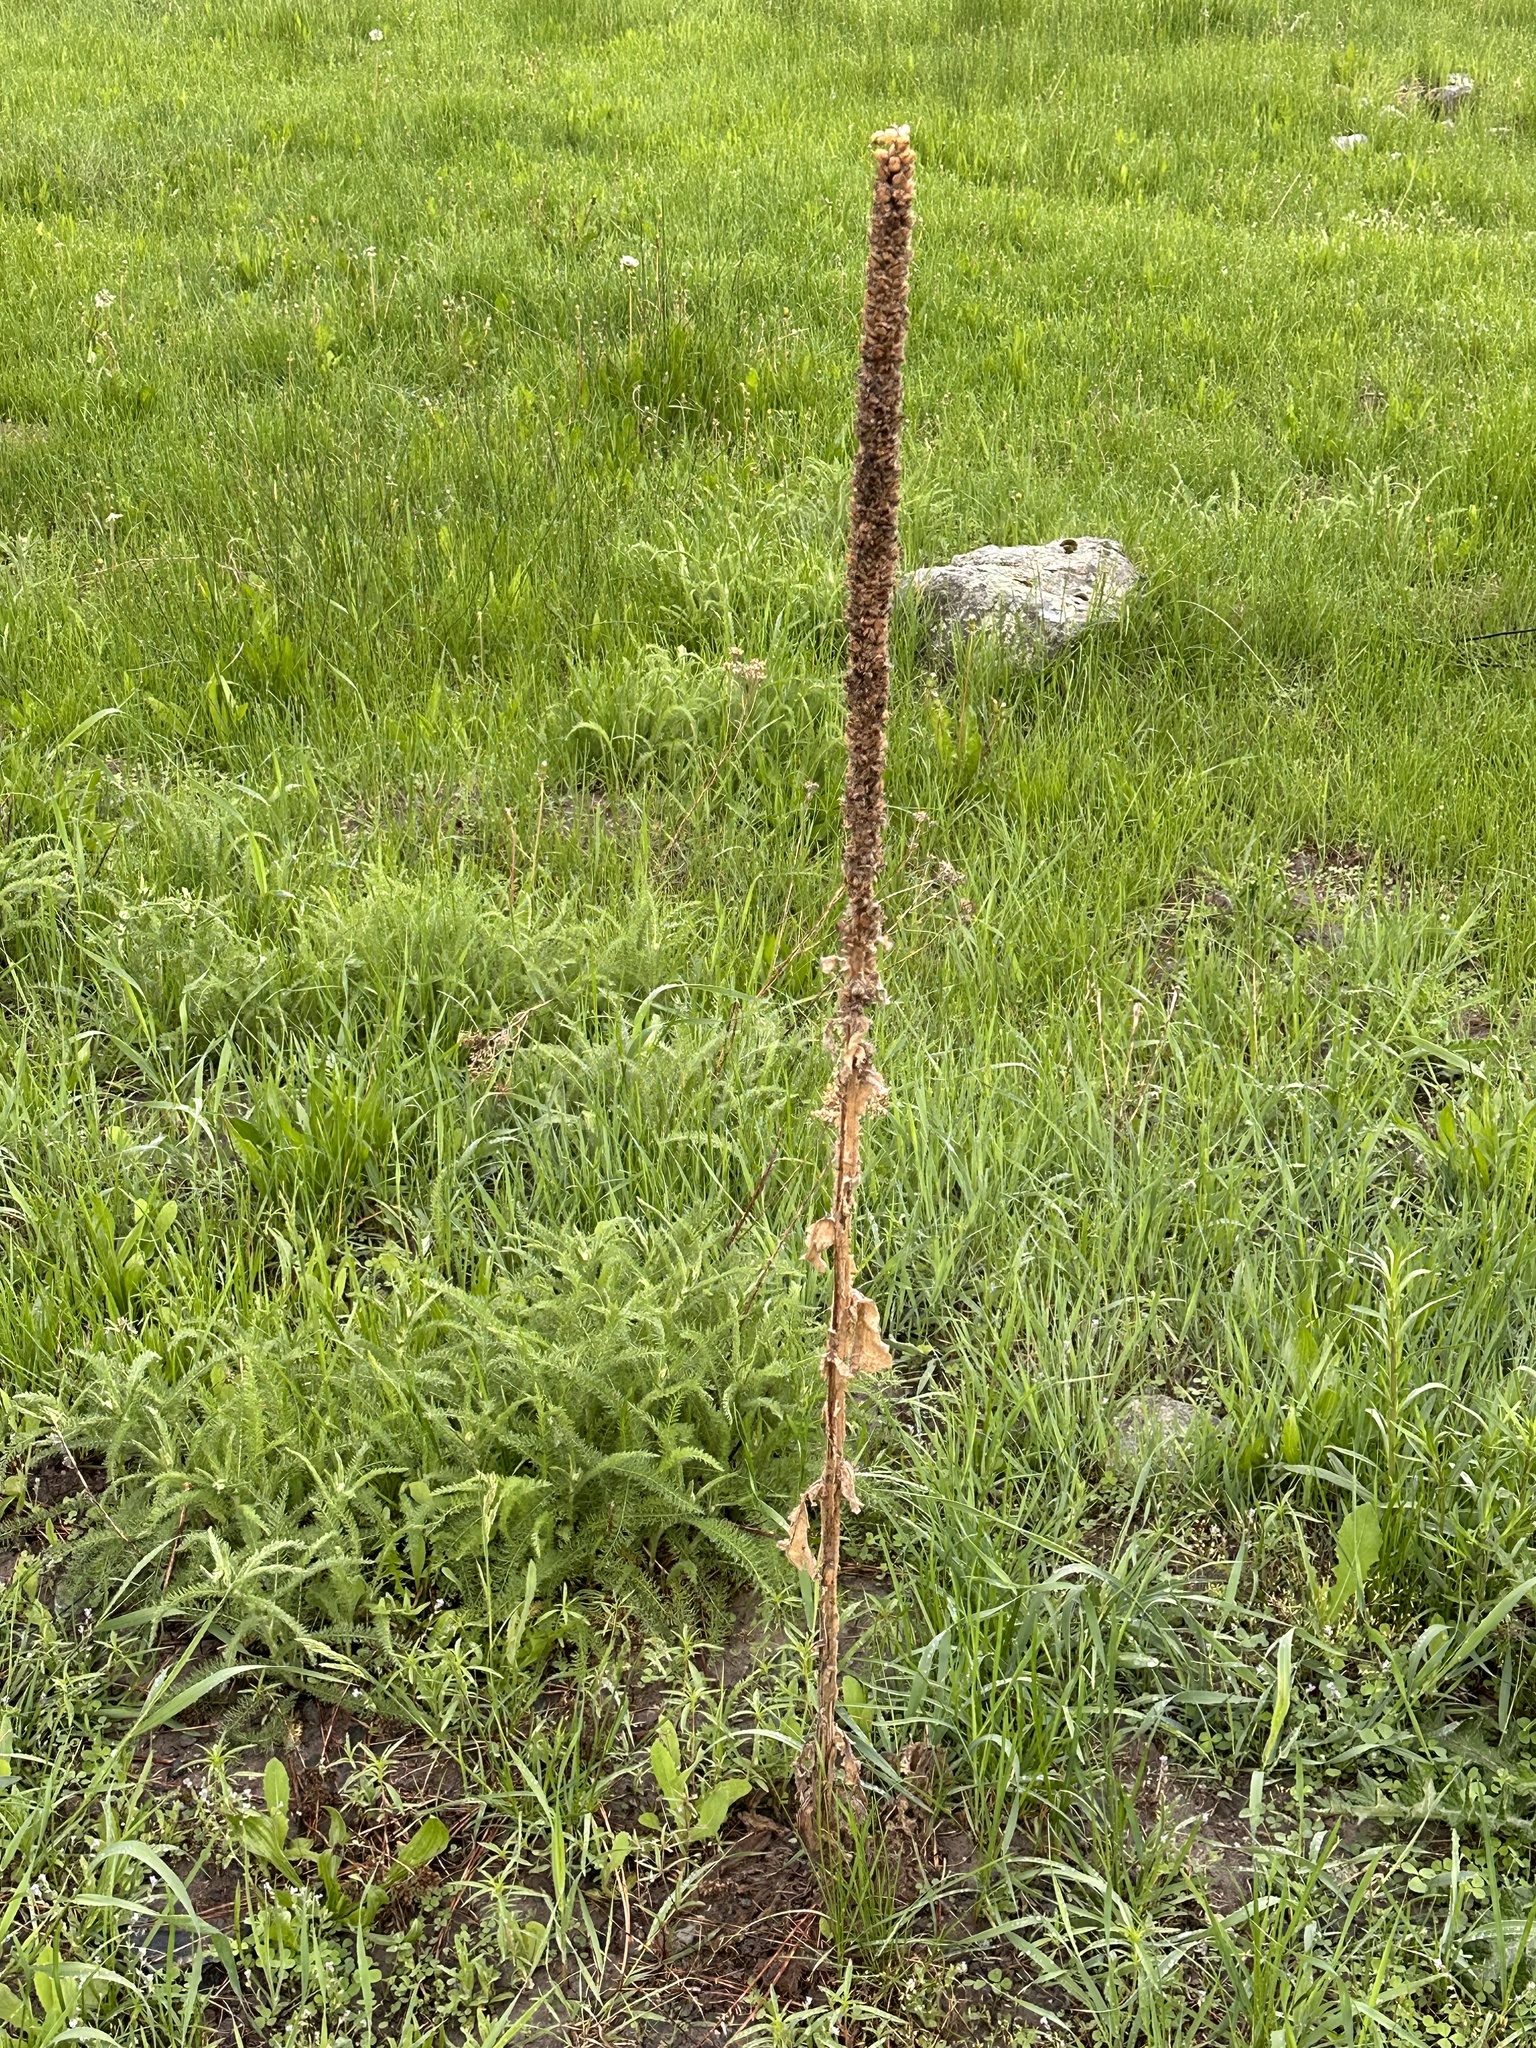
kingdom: Plantae
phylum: Tracheophyta
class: Magnoliopsida
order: Lamiales
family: Scrophulariaceae
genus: Verbascum
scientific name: Verbascum thapsus
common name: Common mullein
